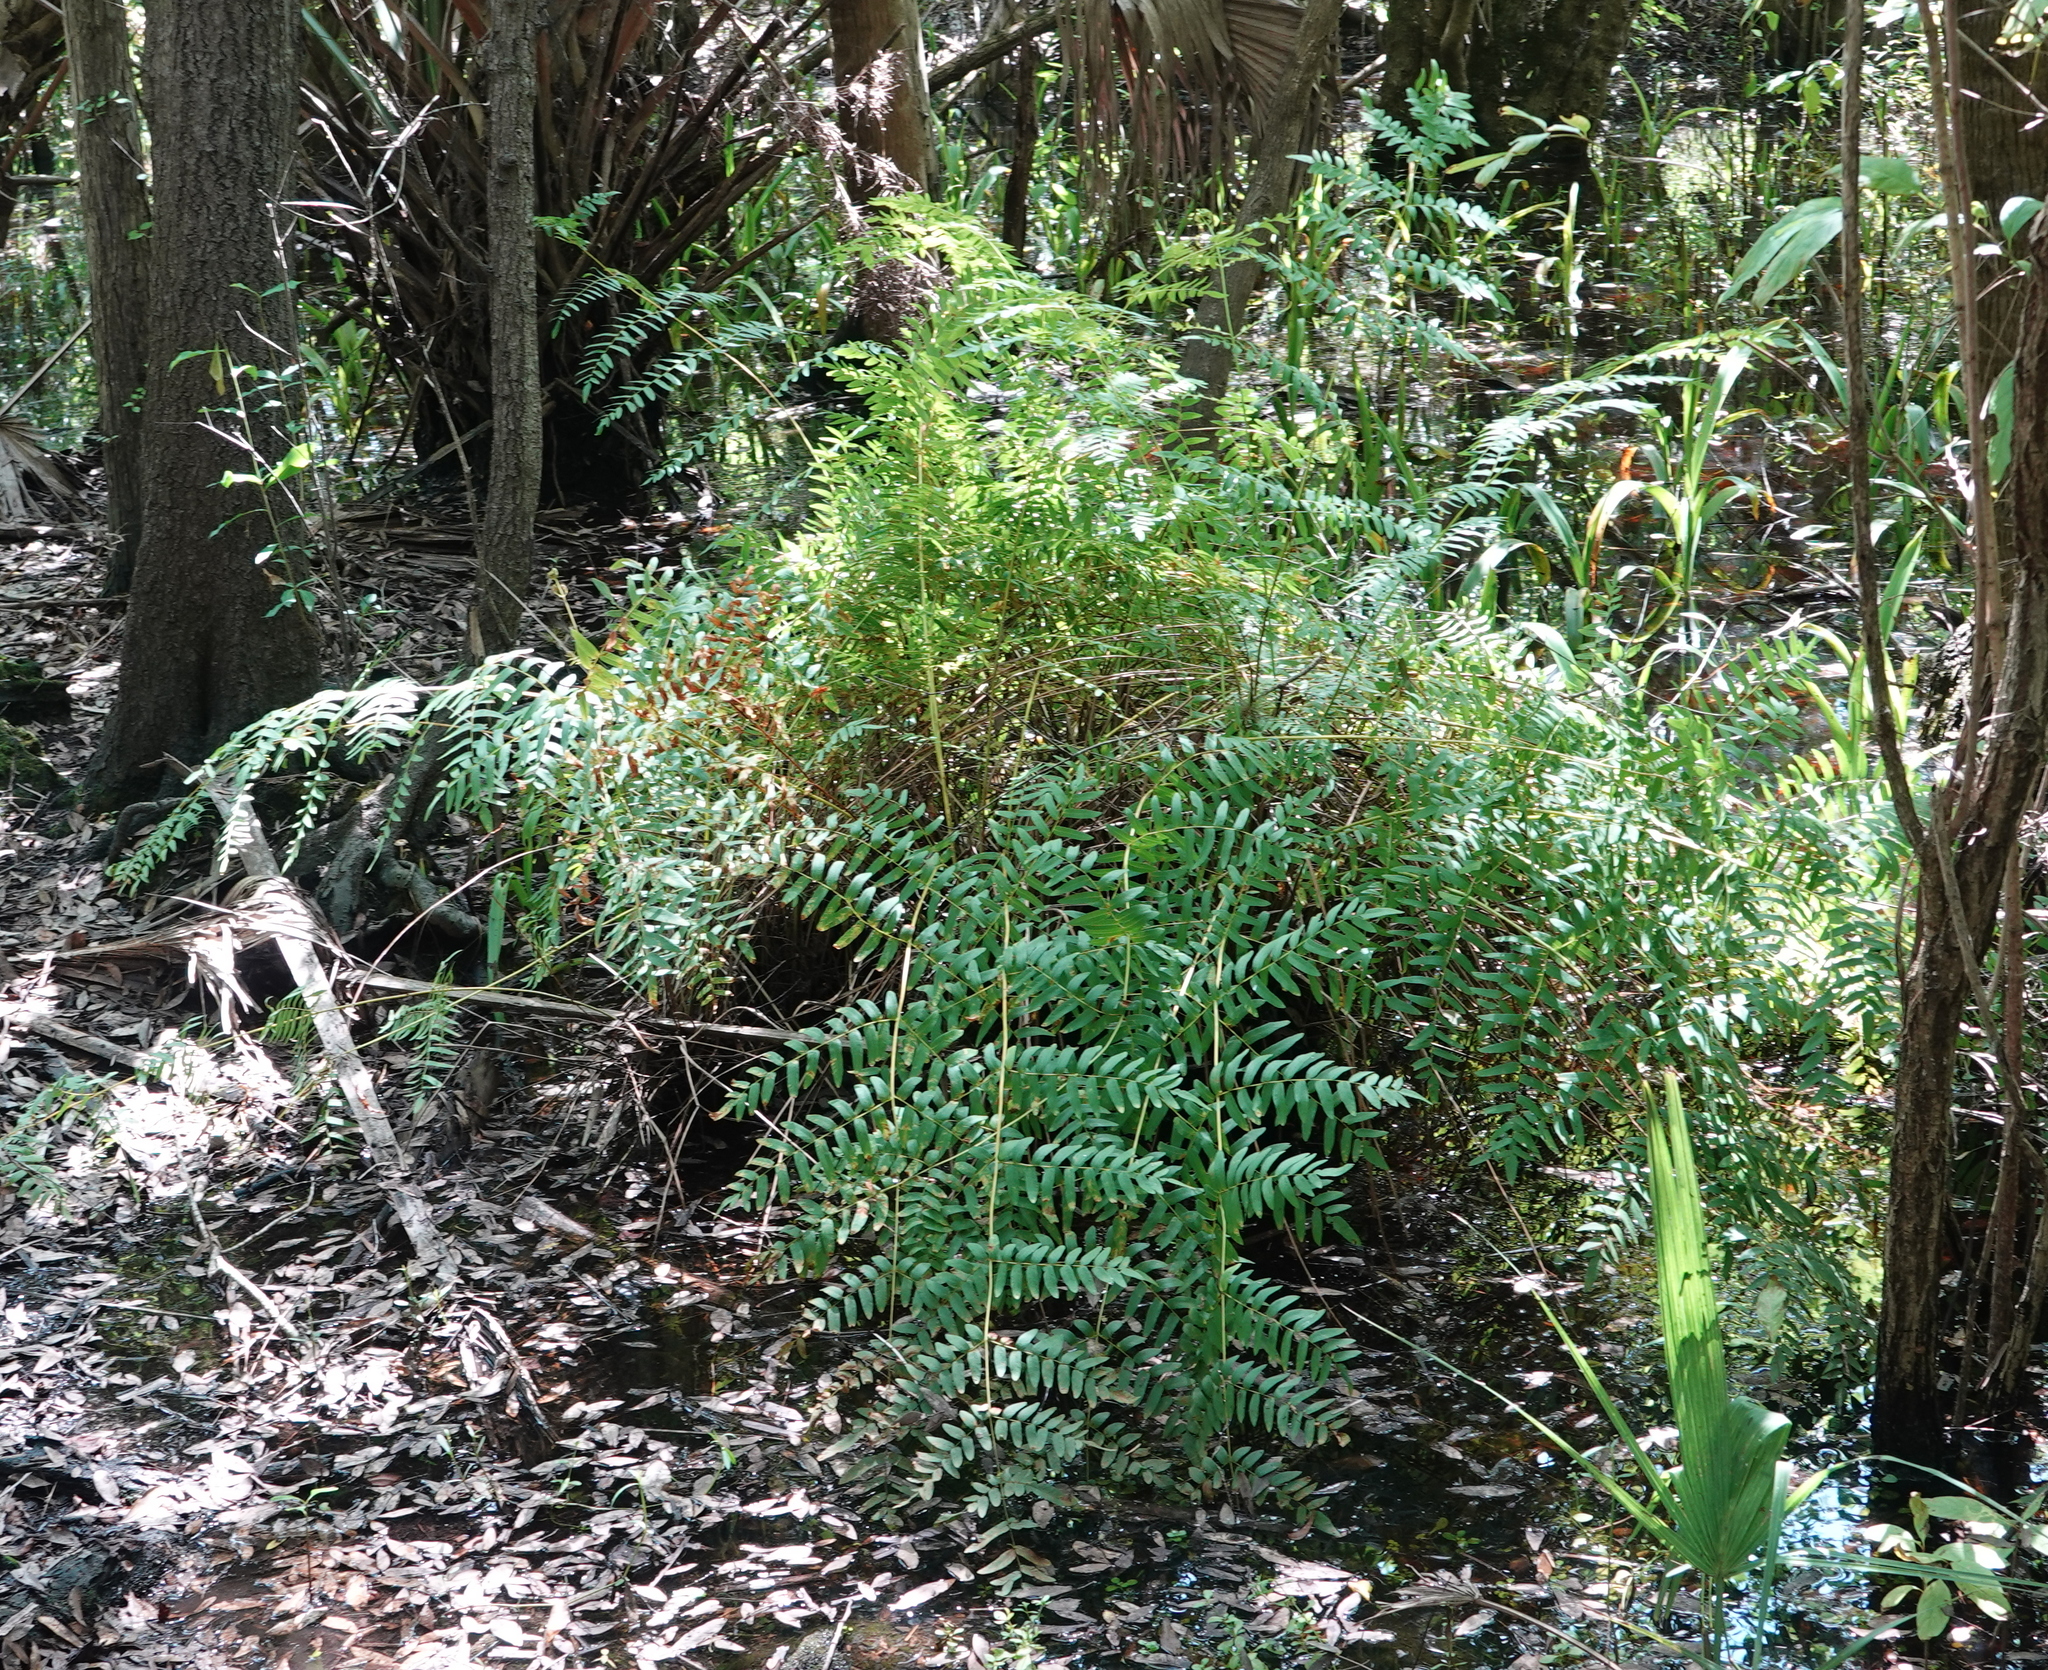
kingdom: Plantae
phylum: Tracheophyta
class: Polypodiopsida
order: Osmundales
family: Osmundaceae
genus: Osmunda
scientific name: Osmunda spectabilis
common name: American royal fern
